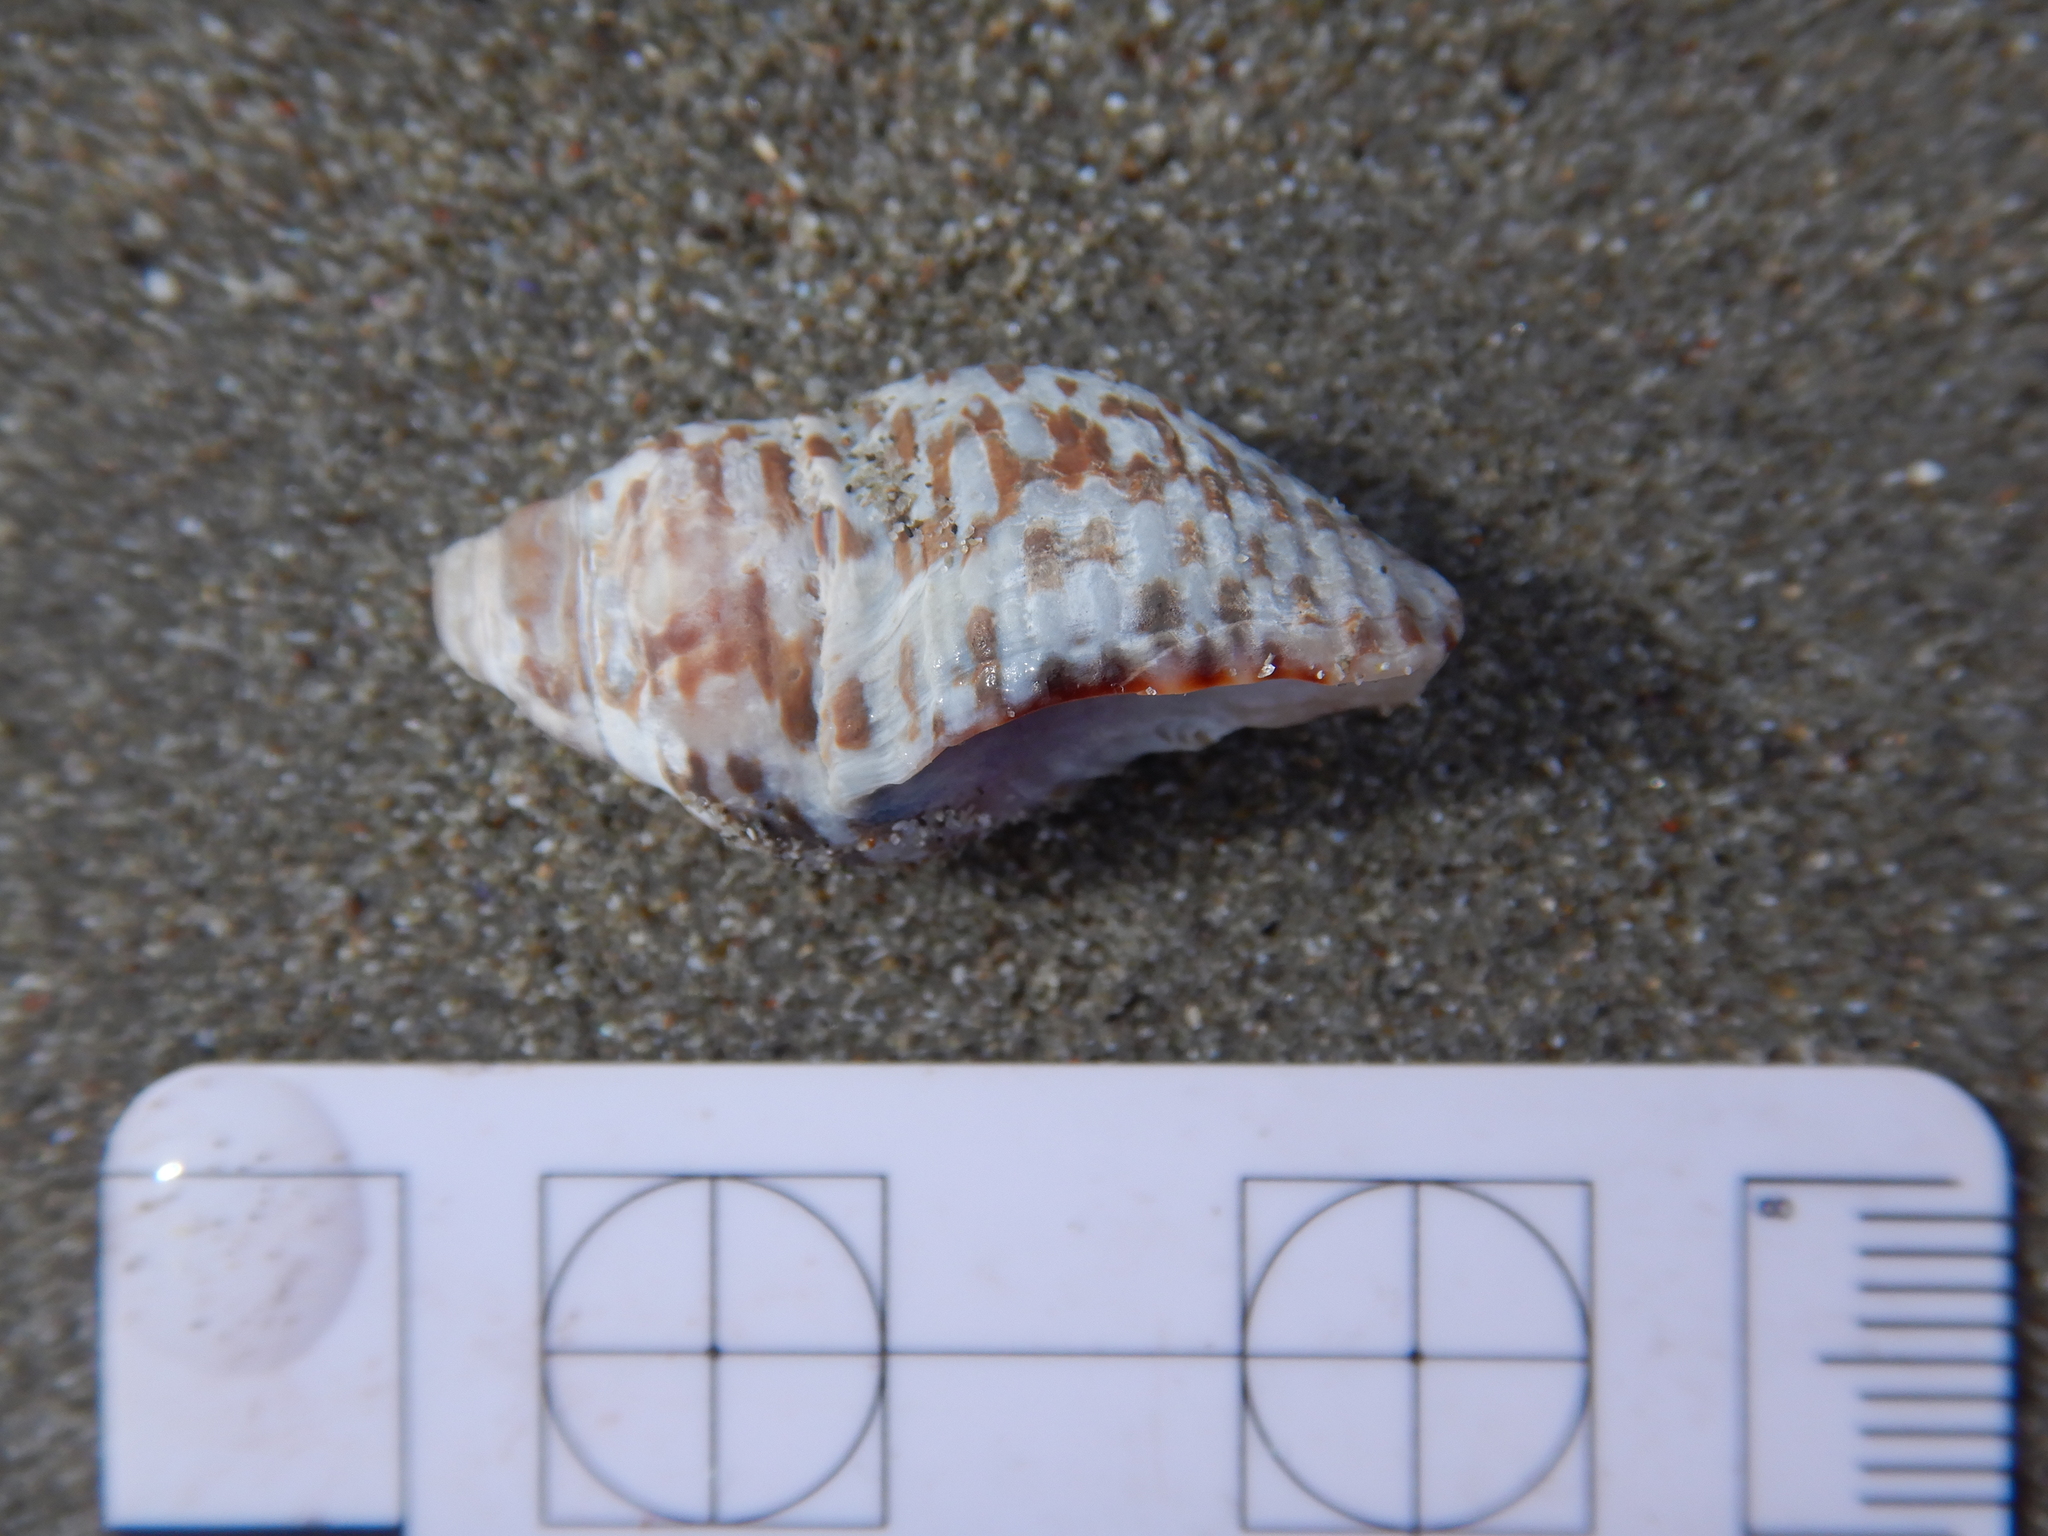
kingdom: Animalia
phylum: Mollusca
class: Gastropoda
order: Neogastropoda
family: Cominellidae
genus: Cominella
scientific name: Cominella lineolata
